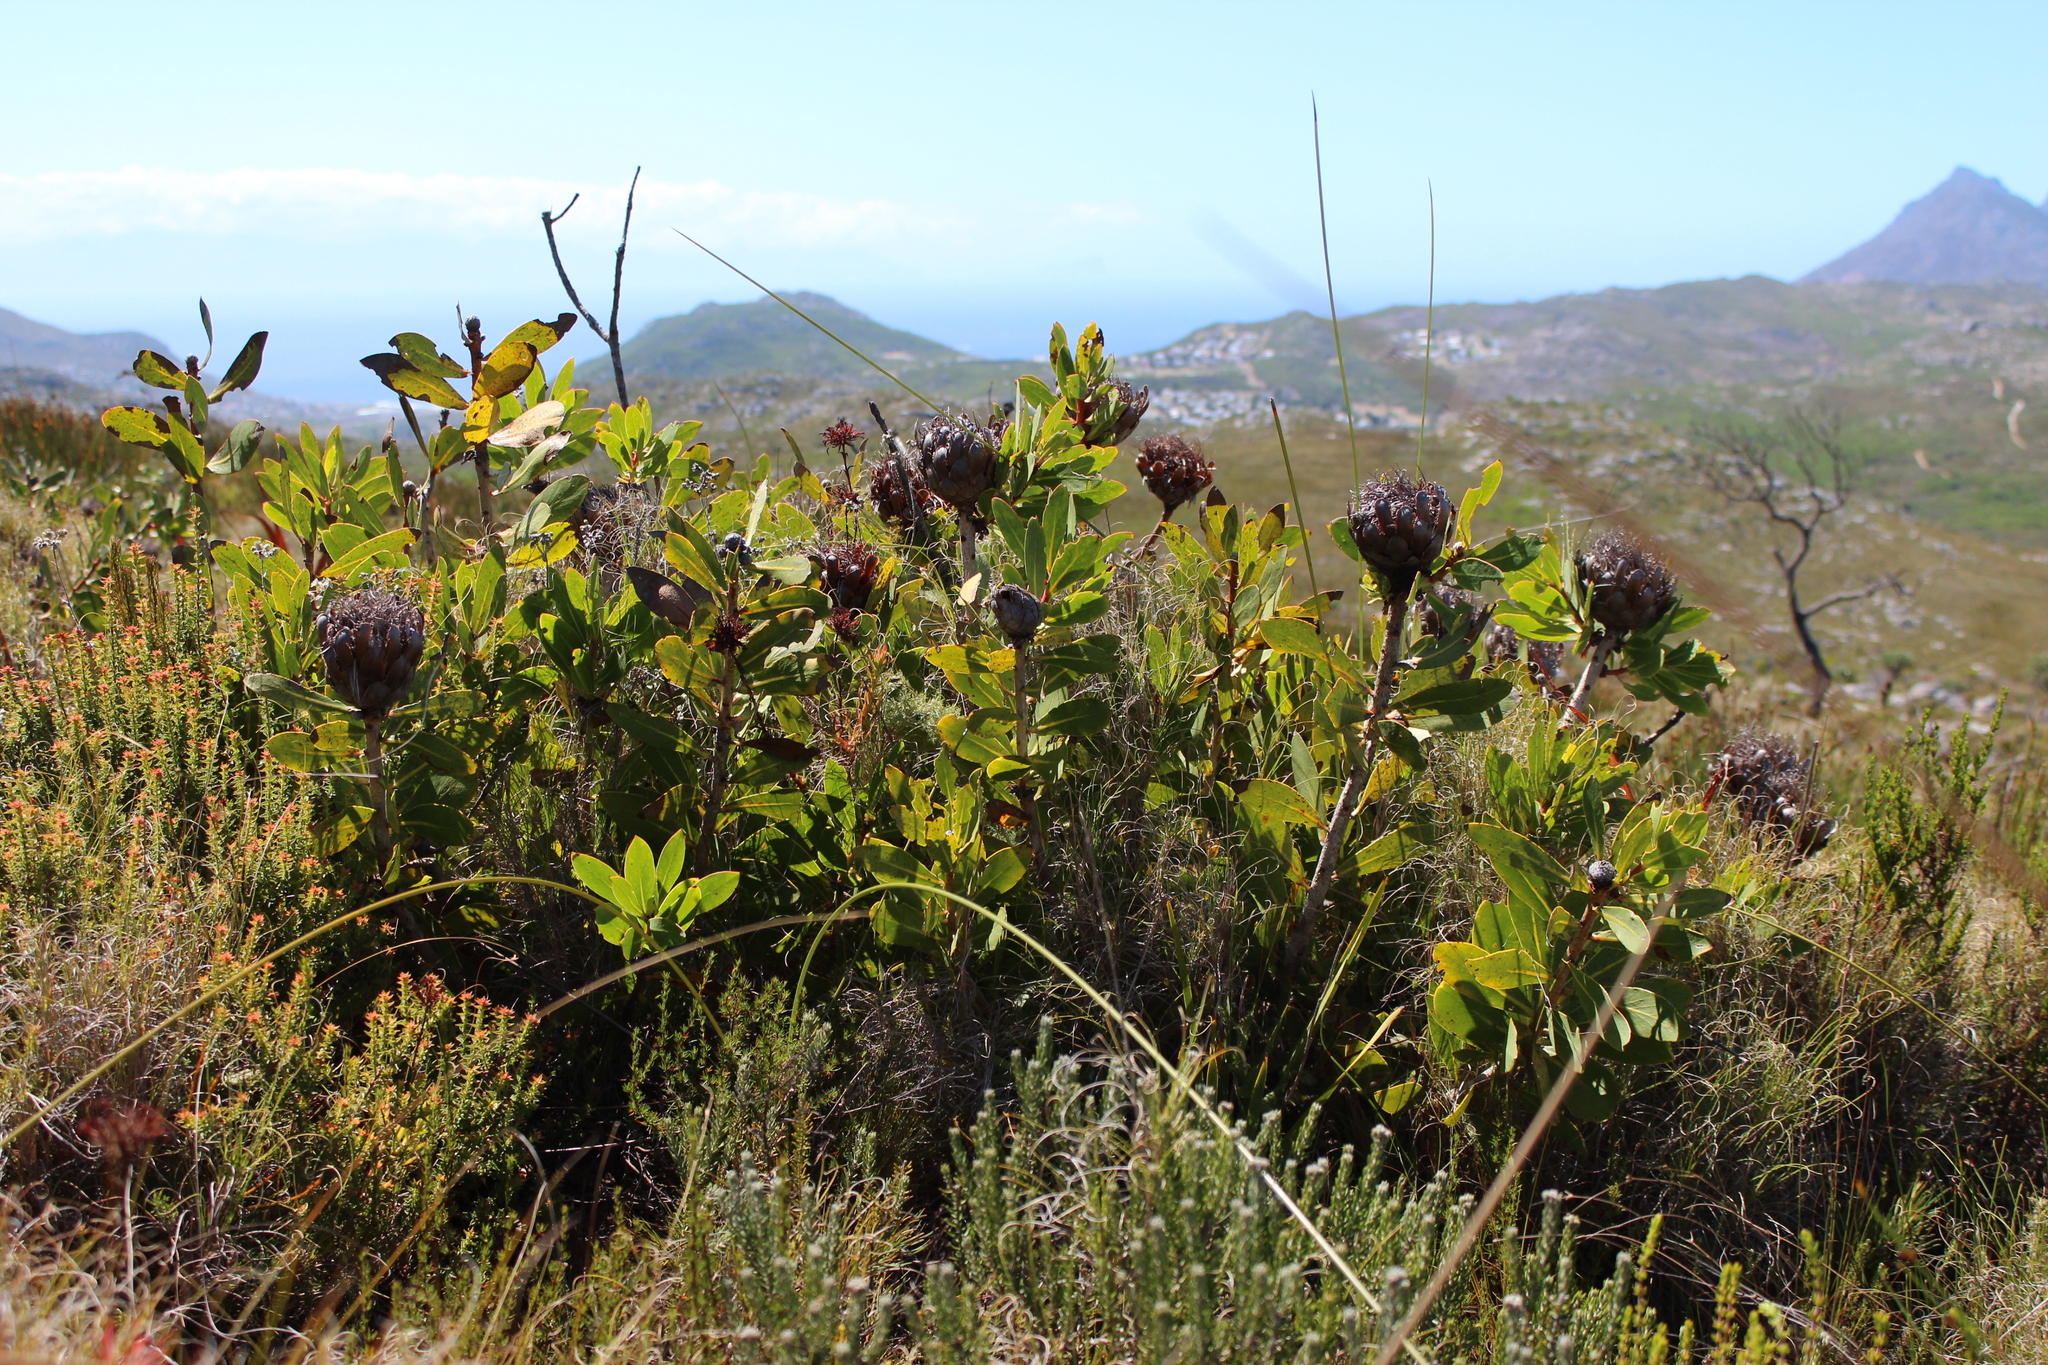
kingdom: Plantae
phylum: Tracheophyta
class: Magnoliopsida
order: Proteales
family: Proteaceae
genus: Protea
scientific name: Protea nitida
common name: Tree protea
